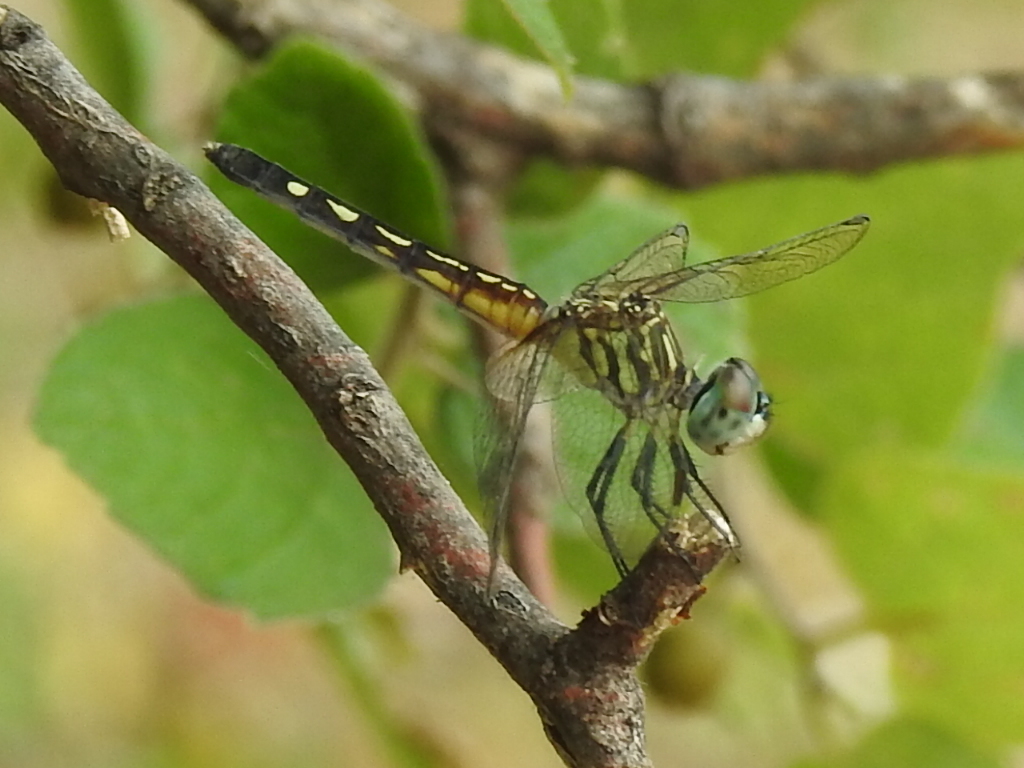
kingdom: Animalia
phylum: Arthropoda
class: Insecta
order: Odonata
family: Libellulidae
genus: Pachydiplax
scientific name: Pachydiplax longipennis
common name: Blue dasher
